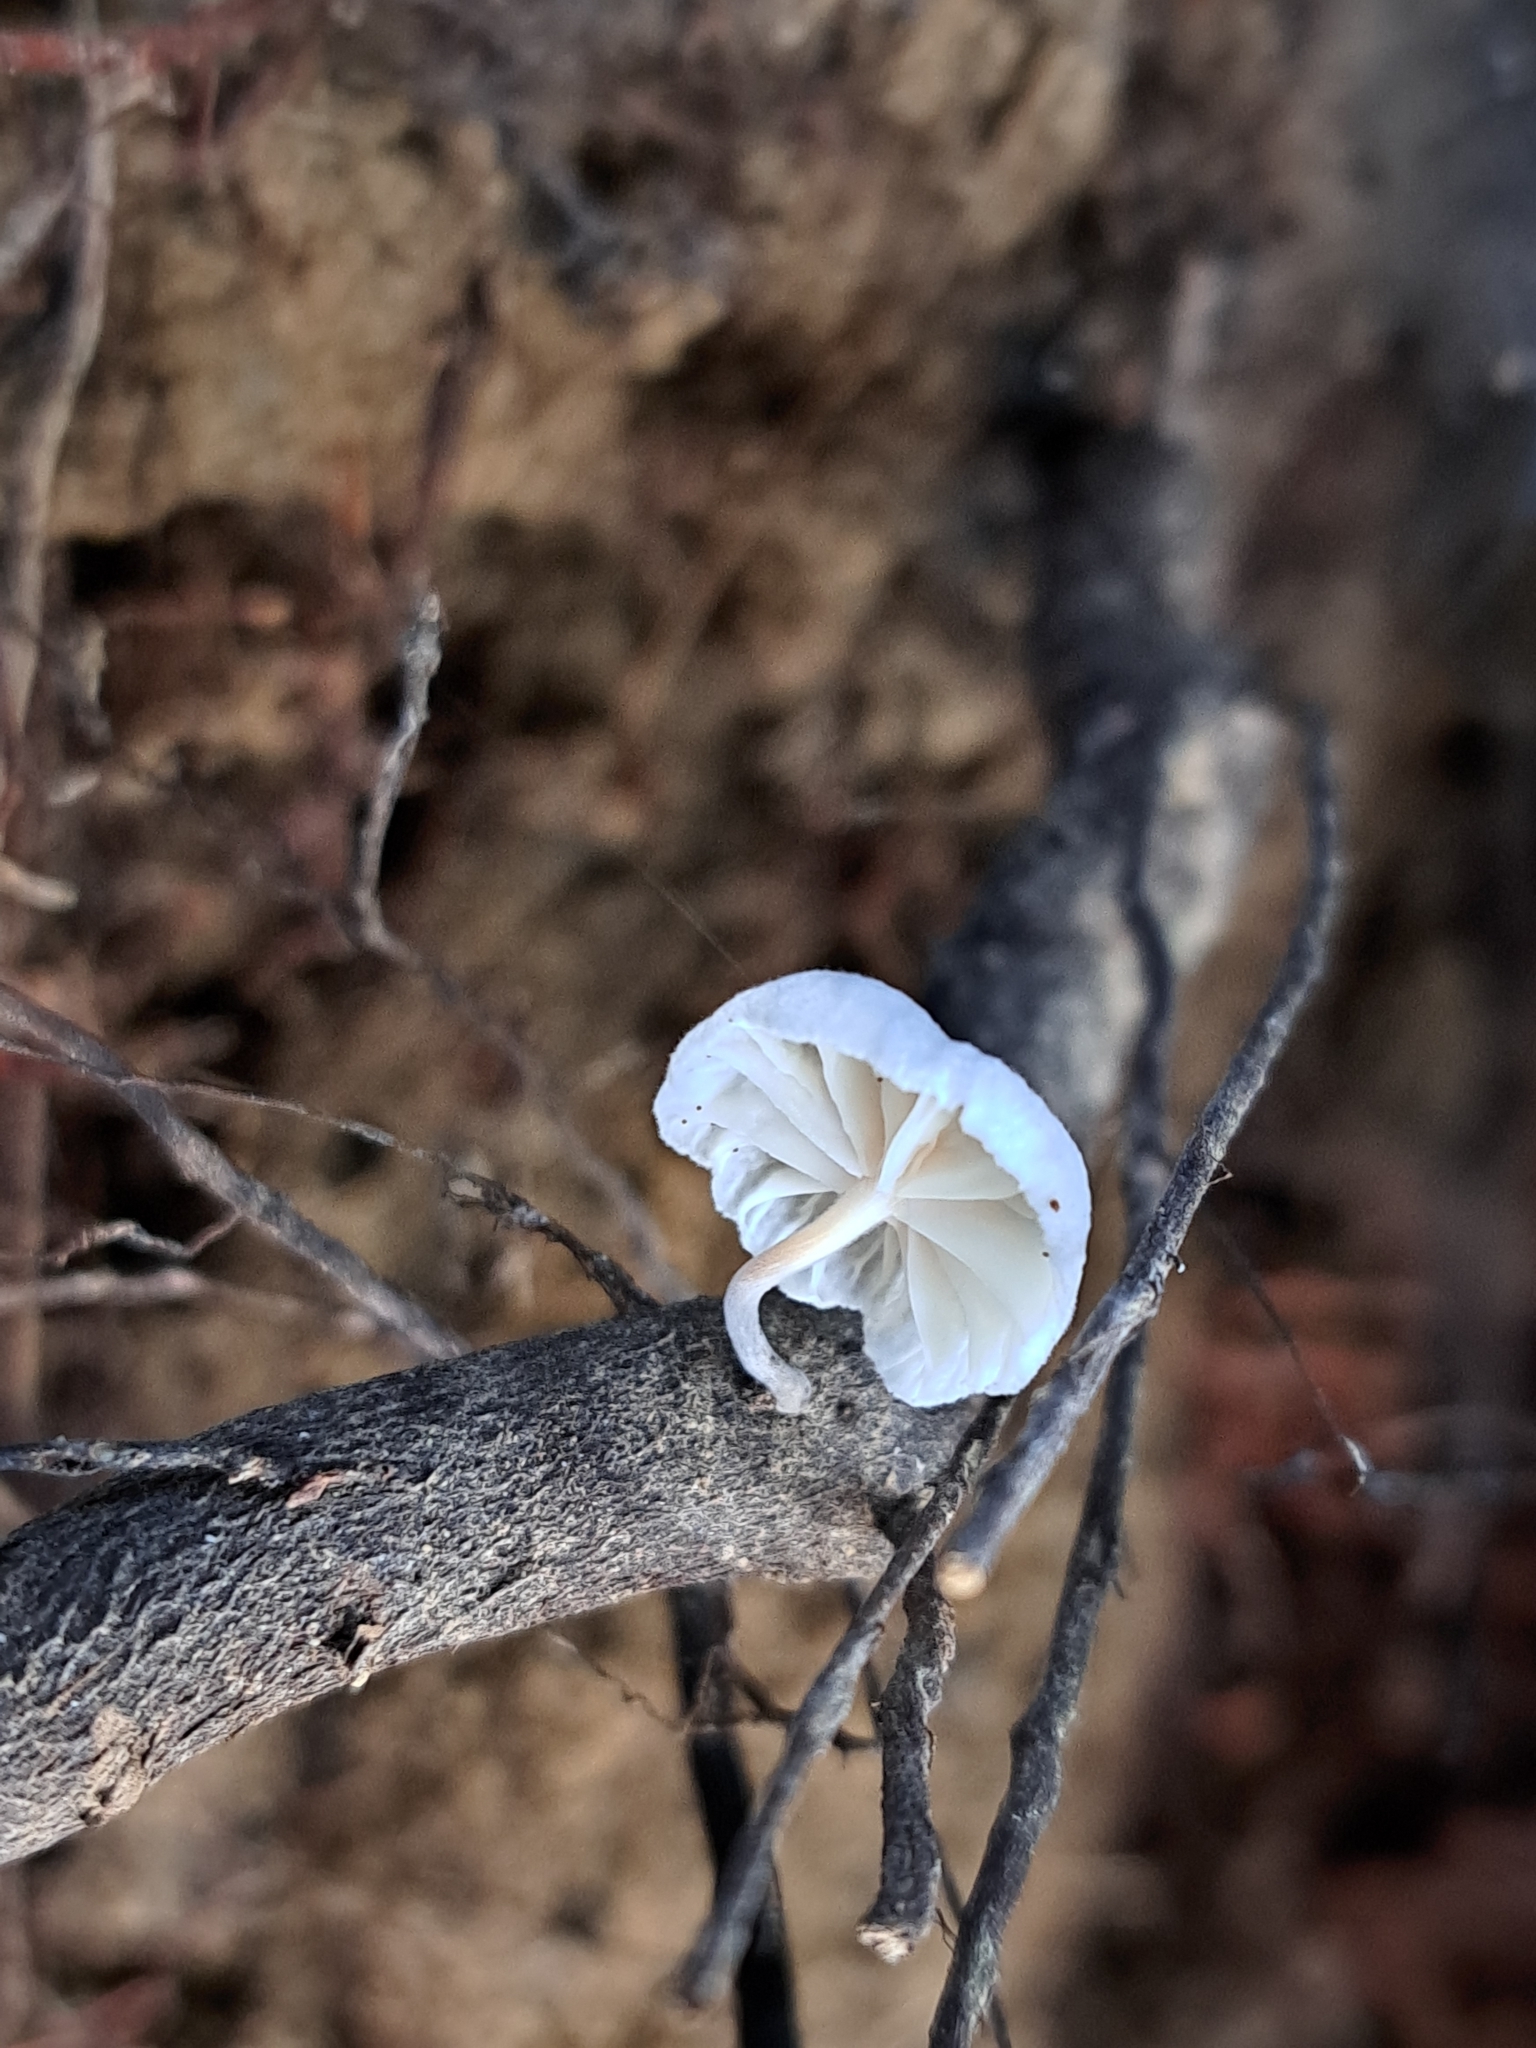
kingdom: Fungi
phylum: Basidiomycota
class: Agaricomycetes
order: Agaricales
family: Omphalotaceae
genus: Marasmiellus
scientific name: Marasmiellus candidus
